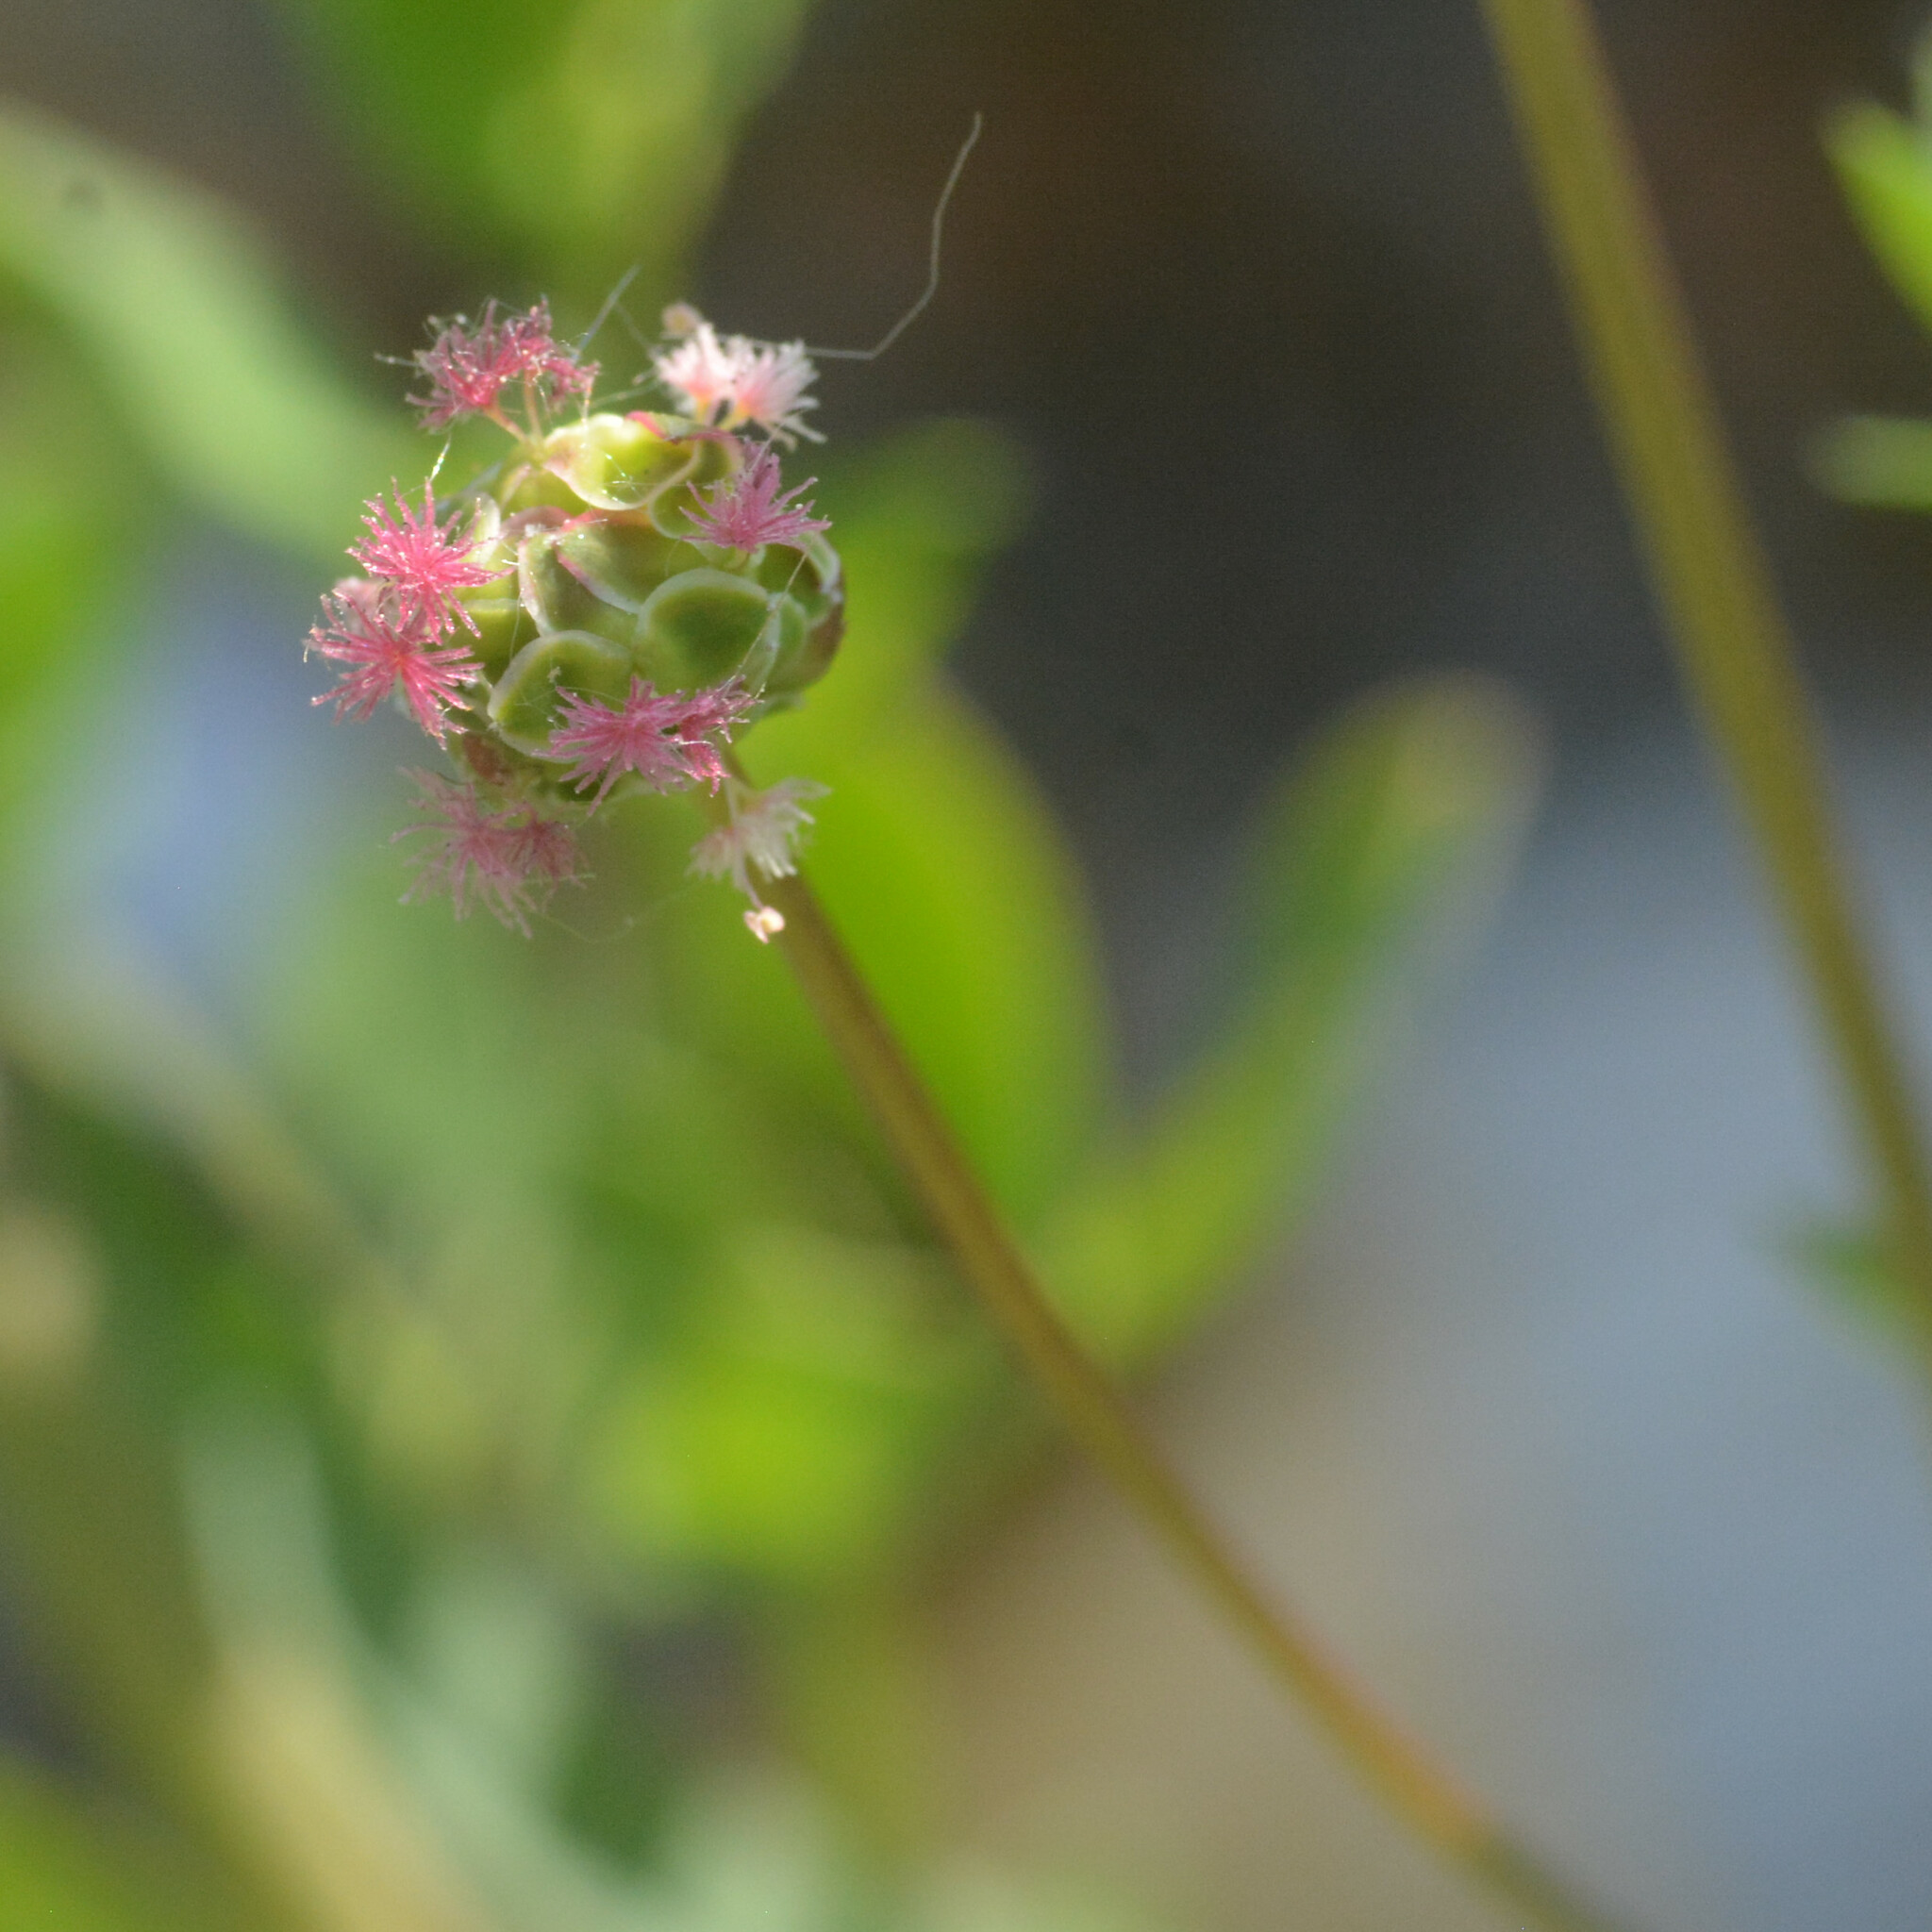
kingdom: Plantae
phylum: Tracheophyta
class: Magnoliopsida
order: Rosales
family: Rosaceae
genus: Poterium
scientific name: Poterium sanguisorba
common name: Salad burnet
